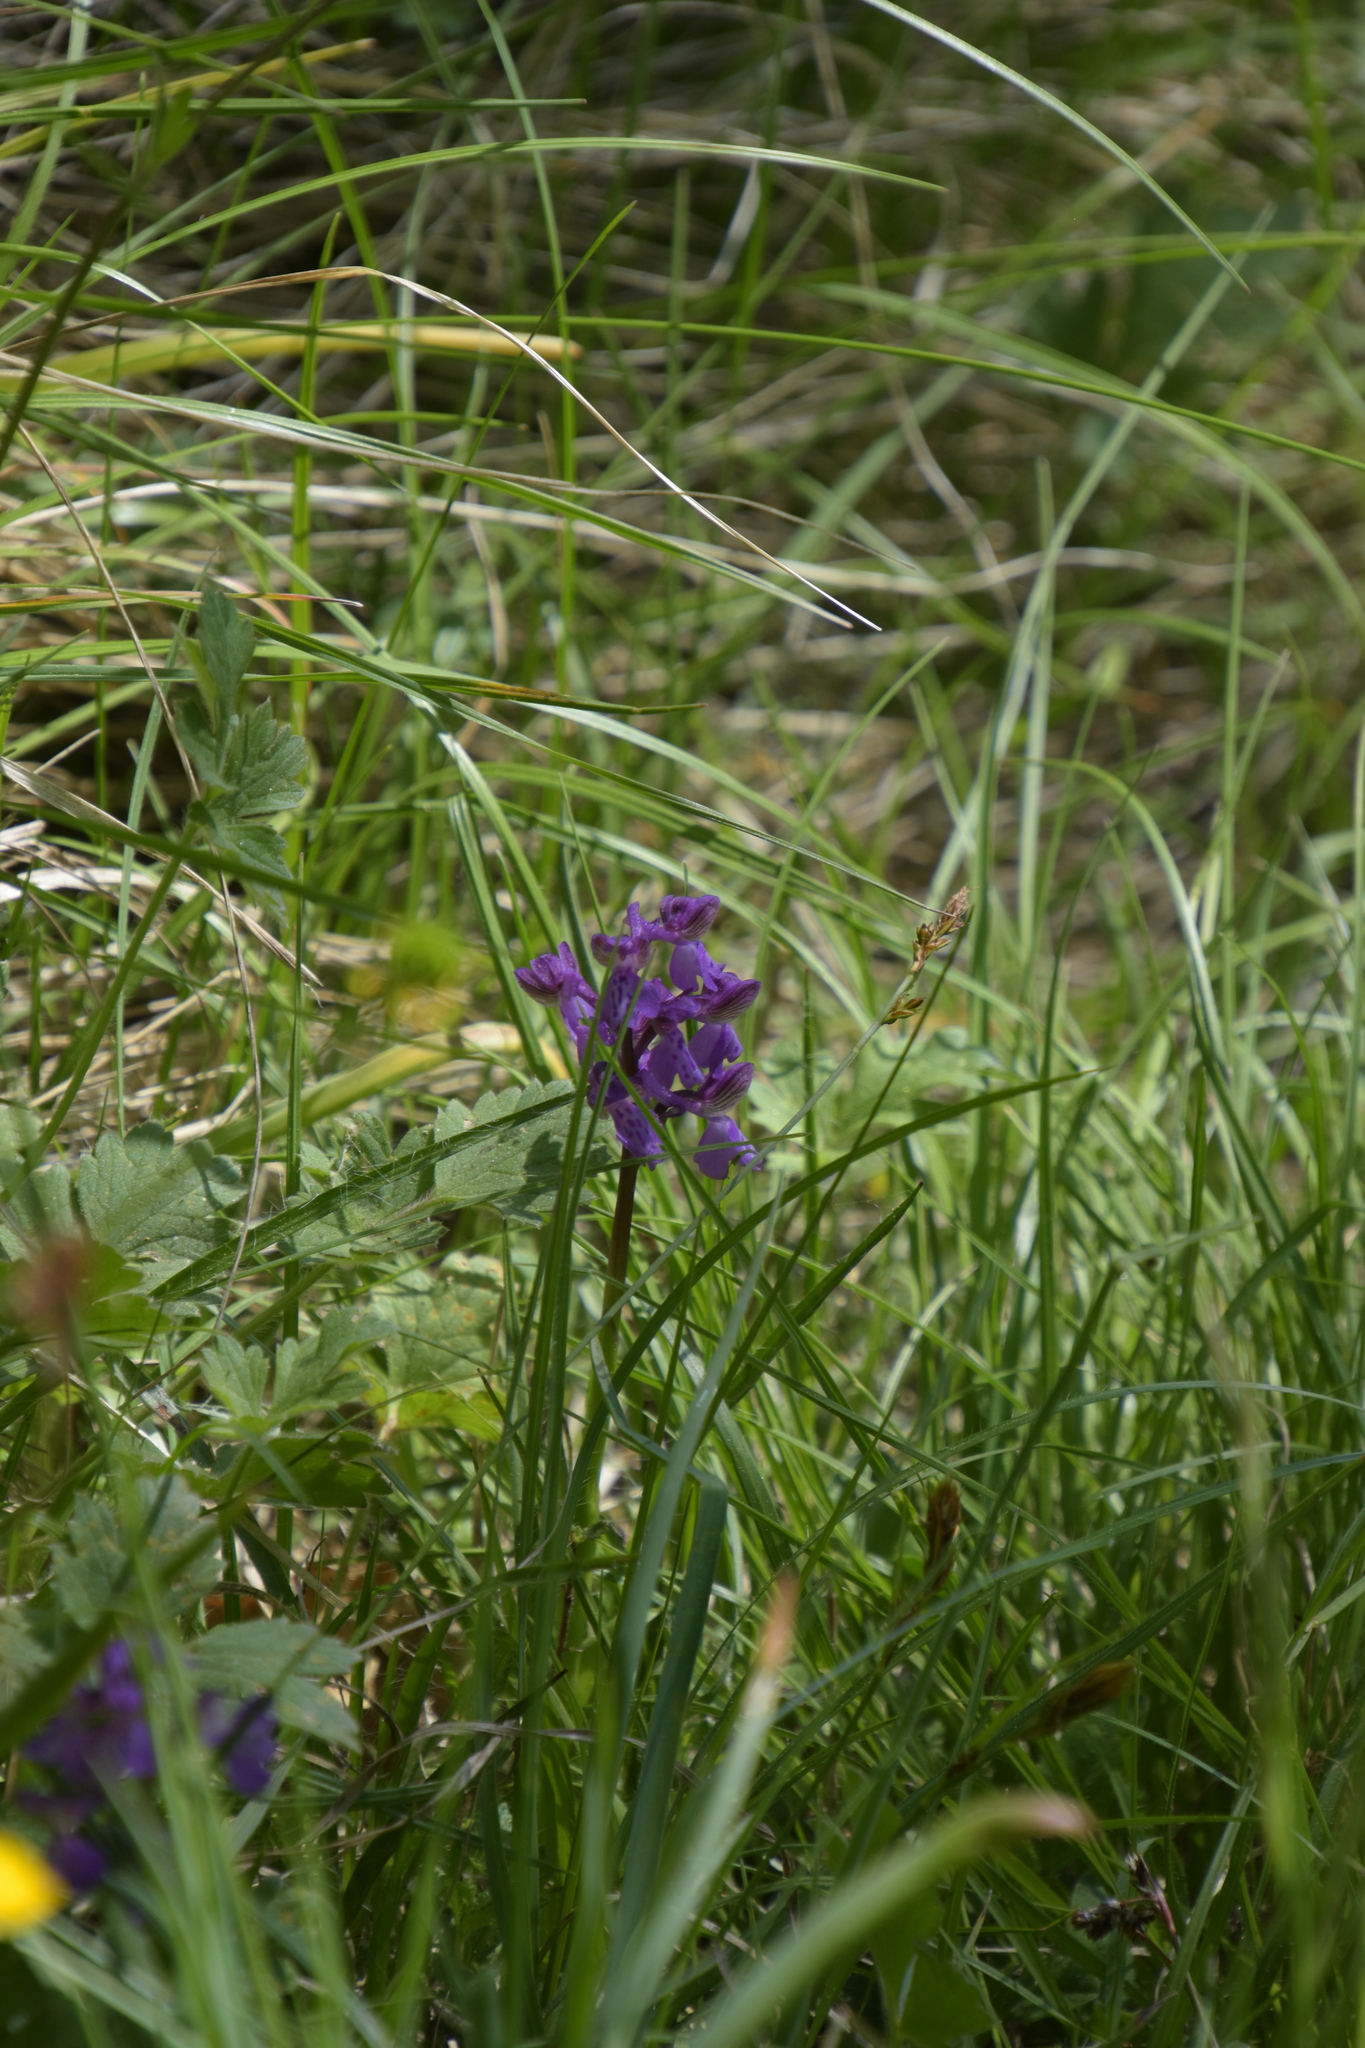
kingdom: Plantae
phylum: Tracheophyta
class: Liliopsida
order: Asparagales
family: Orchidaceae
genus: Anacamptis
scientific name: Anacamptis morio
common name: Green-winged orchid
